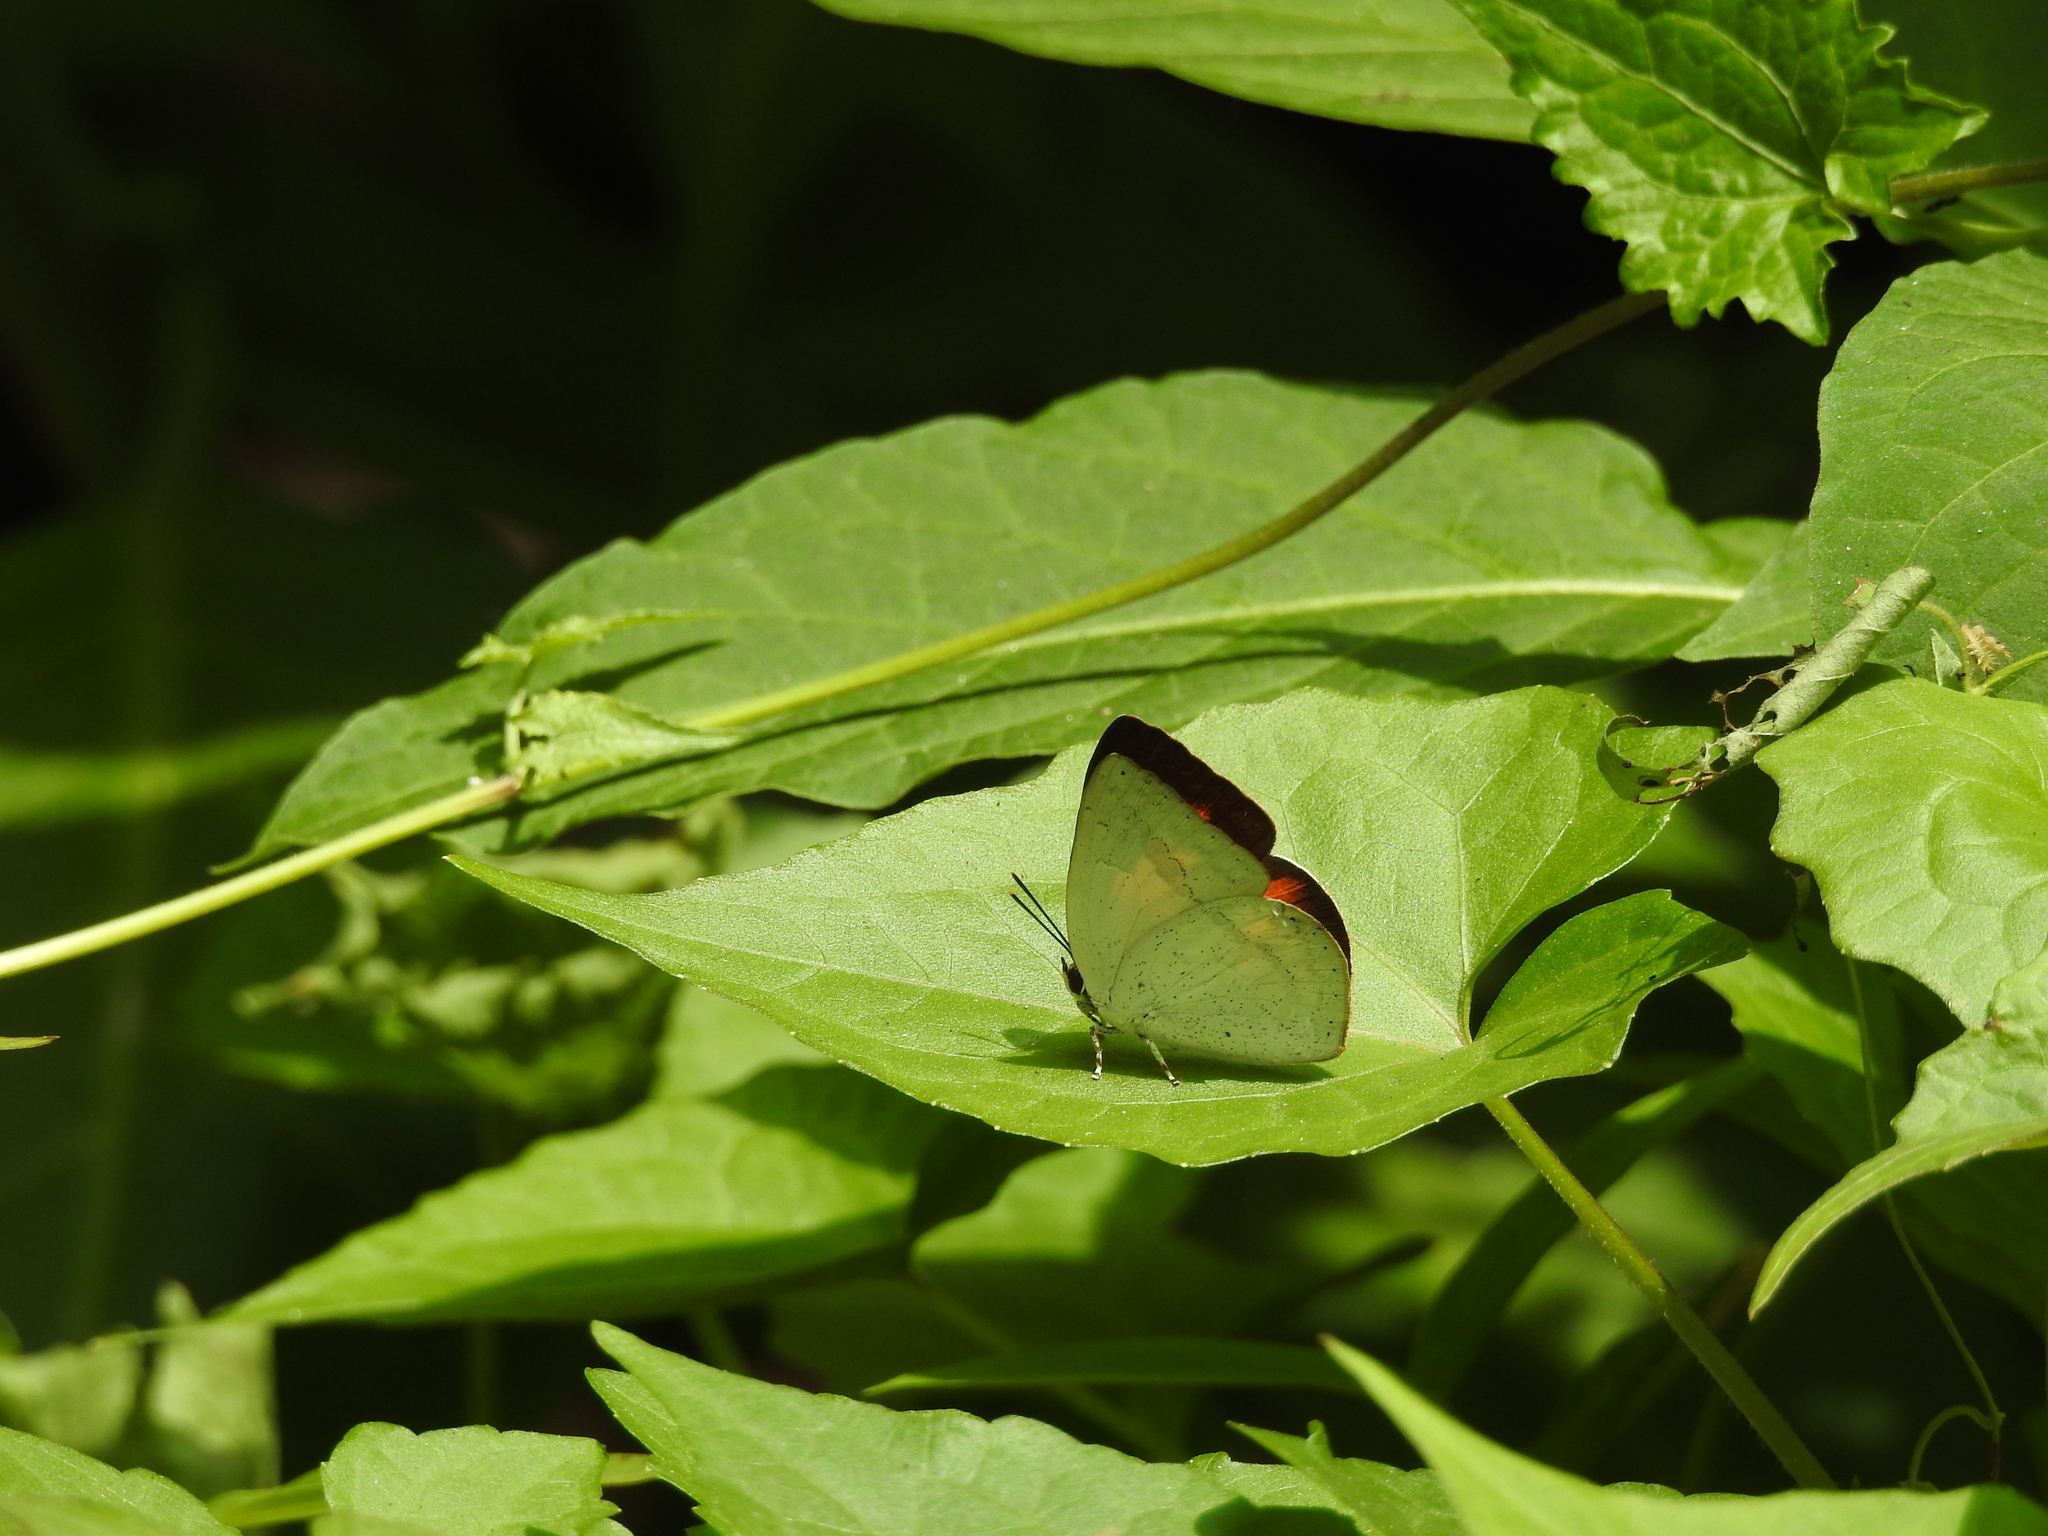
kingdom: Animalia
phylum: Arthropoda
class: Insecta
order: Lepidoptera
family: Lycaenidae
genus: Curetis
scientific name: Curetis siva
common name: Shiva sunbeam
